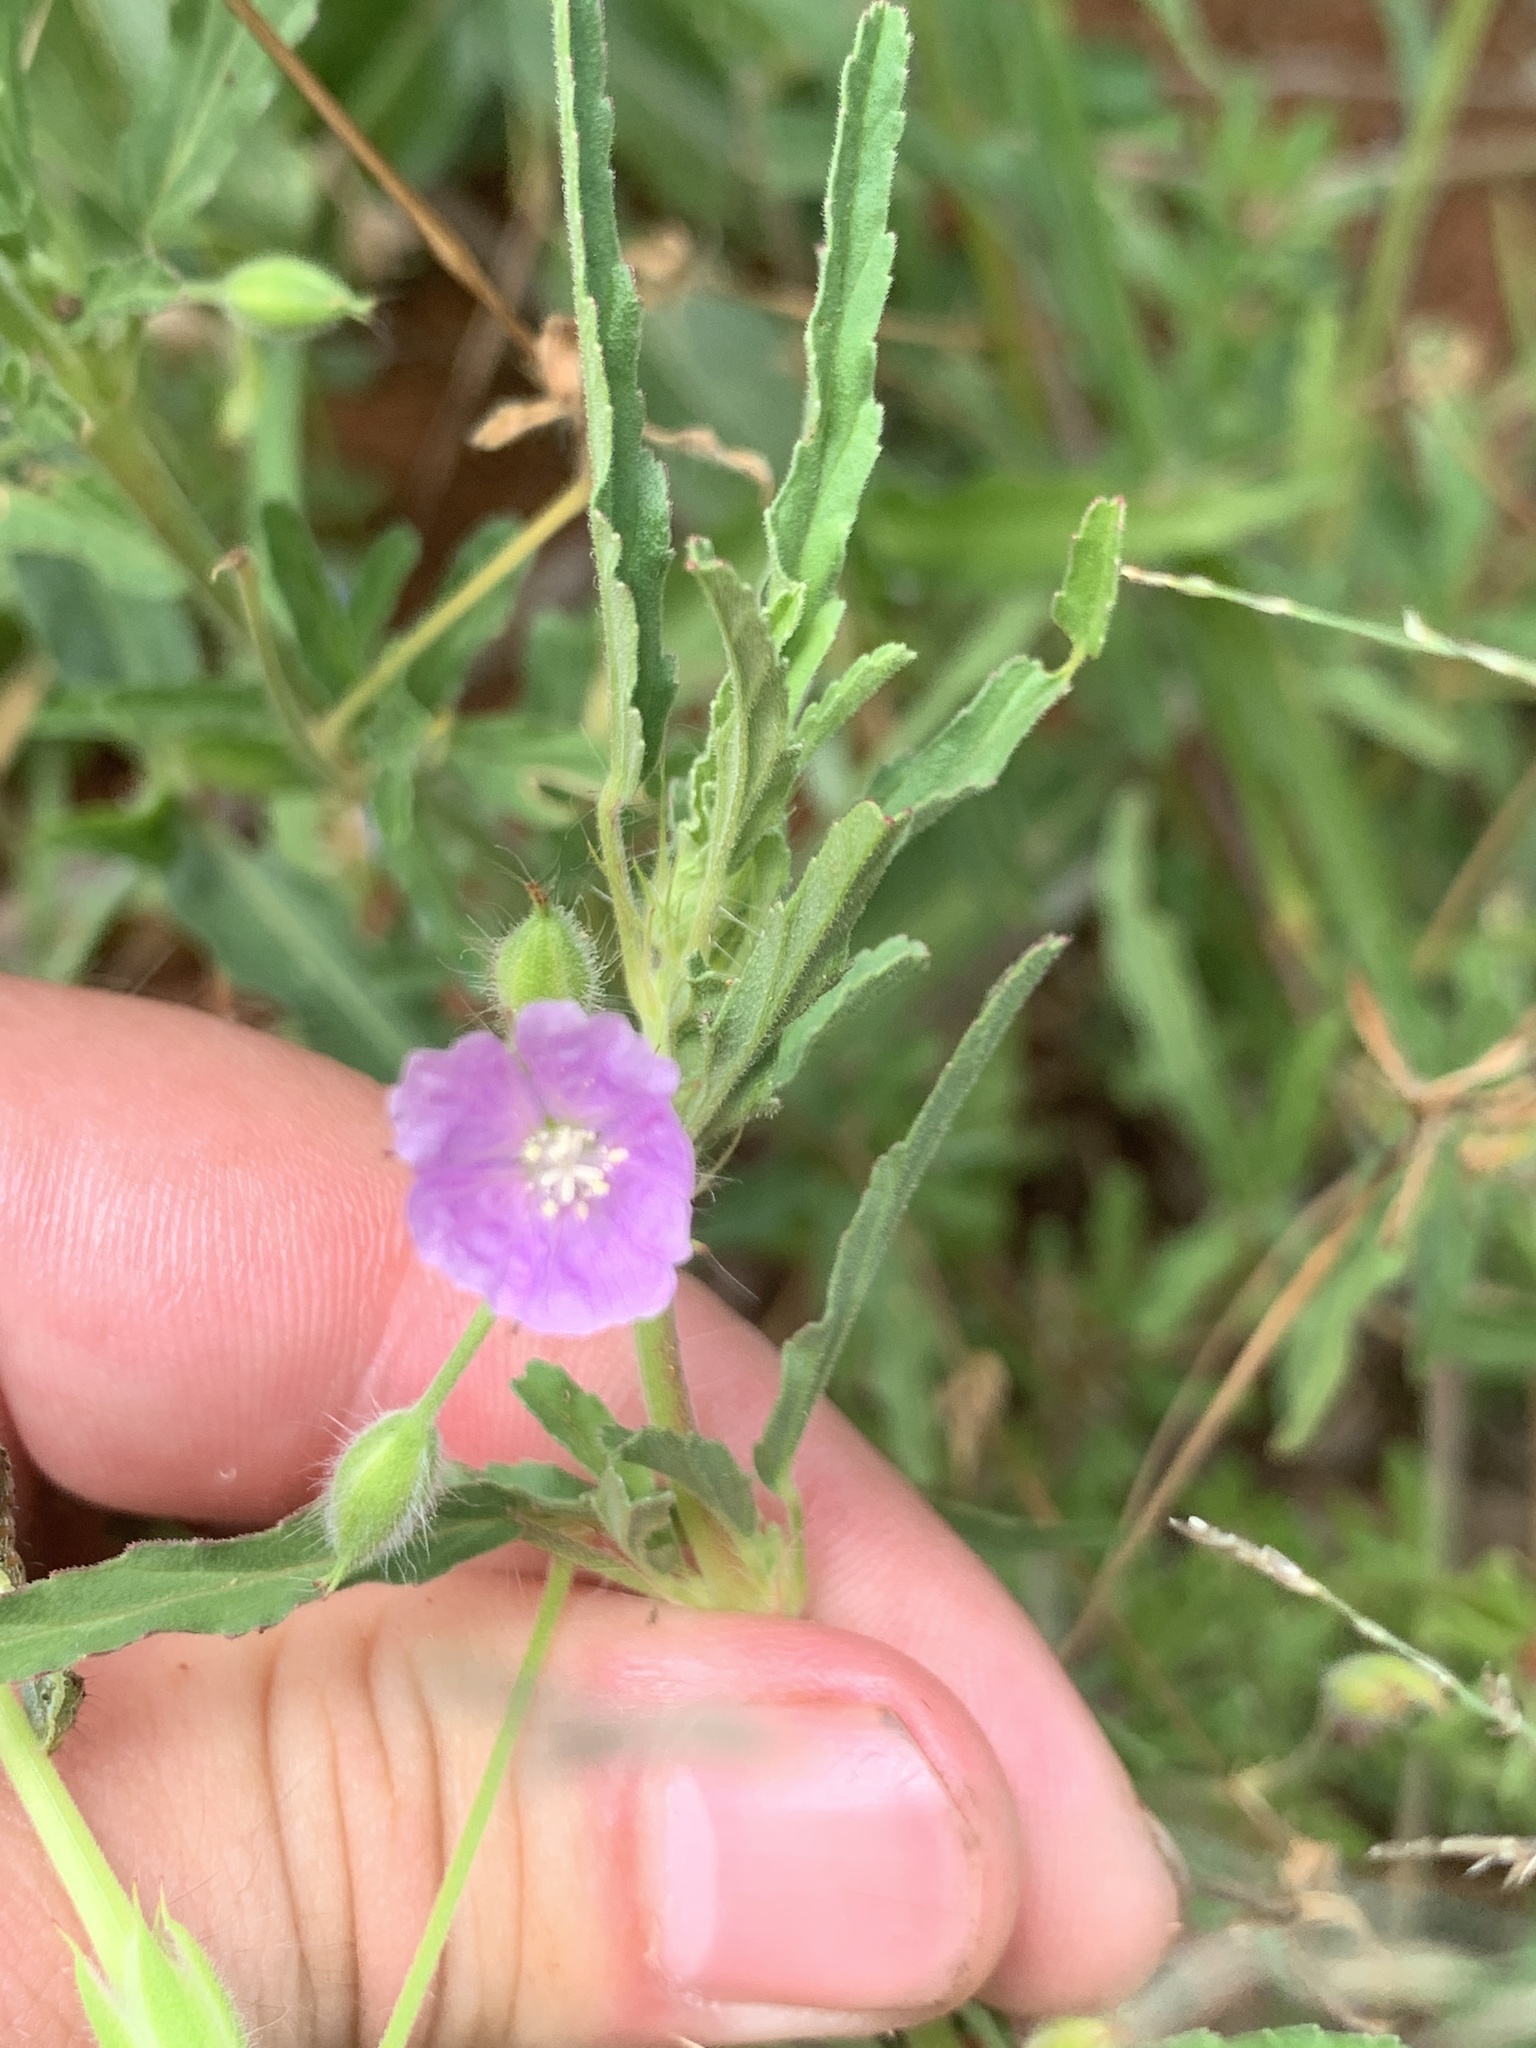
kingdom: Plantae
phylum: Tracheophyta
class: Magnoliopsida
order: Geraniales
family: Geraniaceae
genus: Monsonia
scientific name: Monsonia angustifolia
